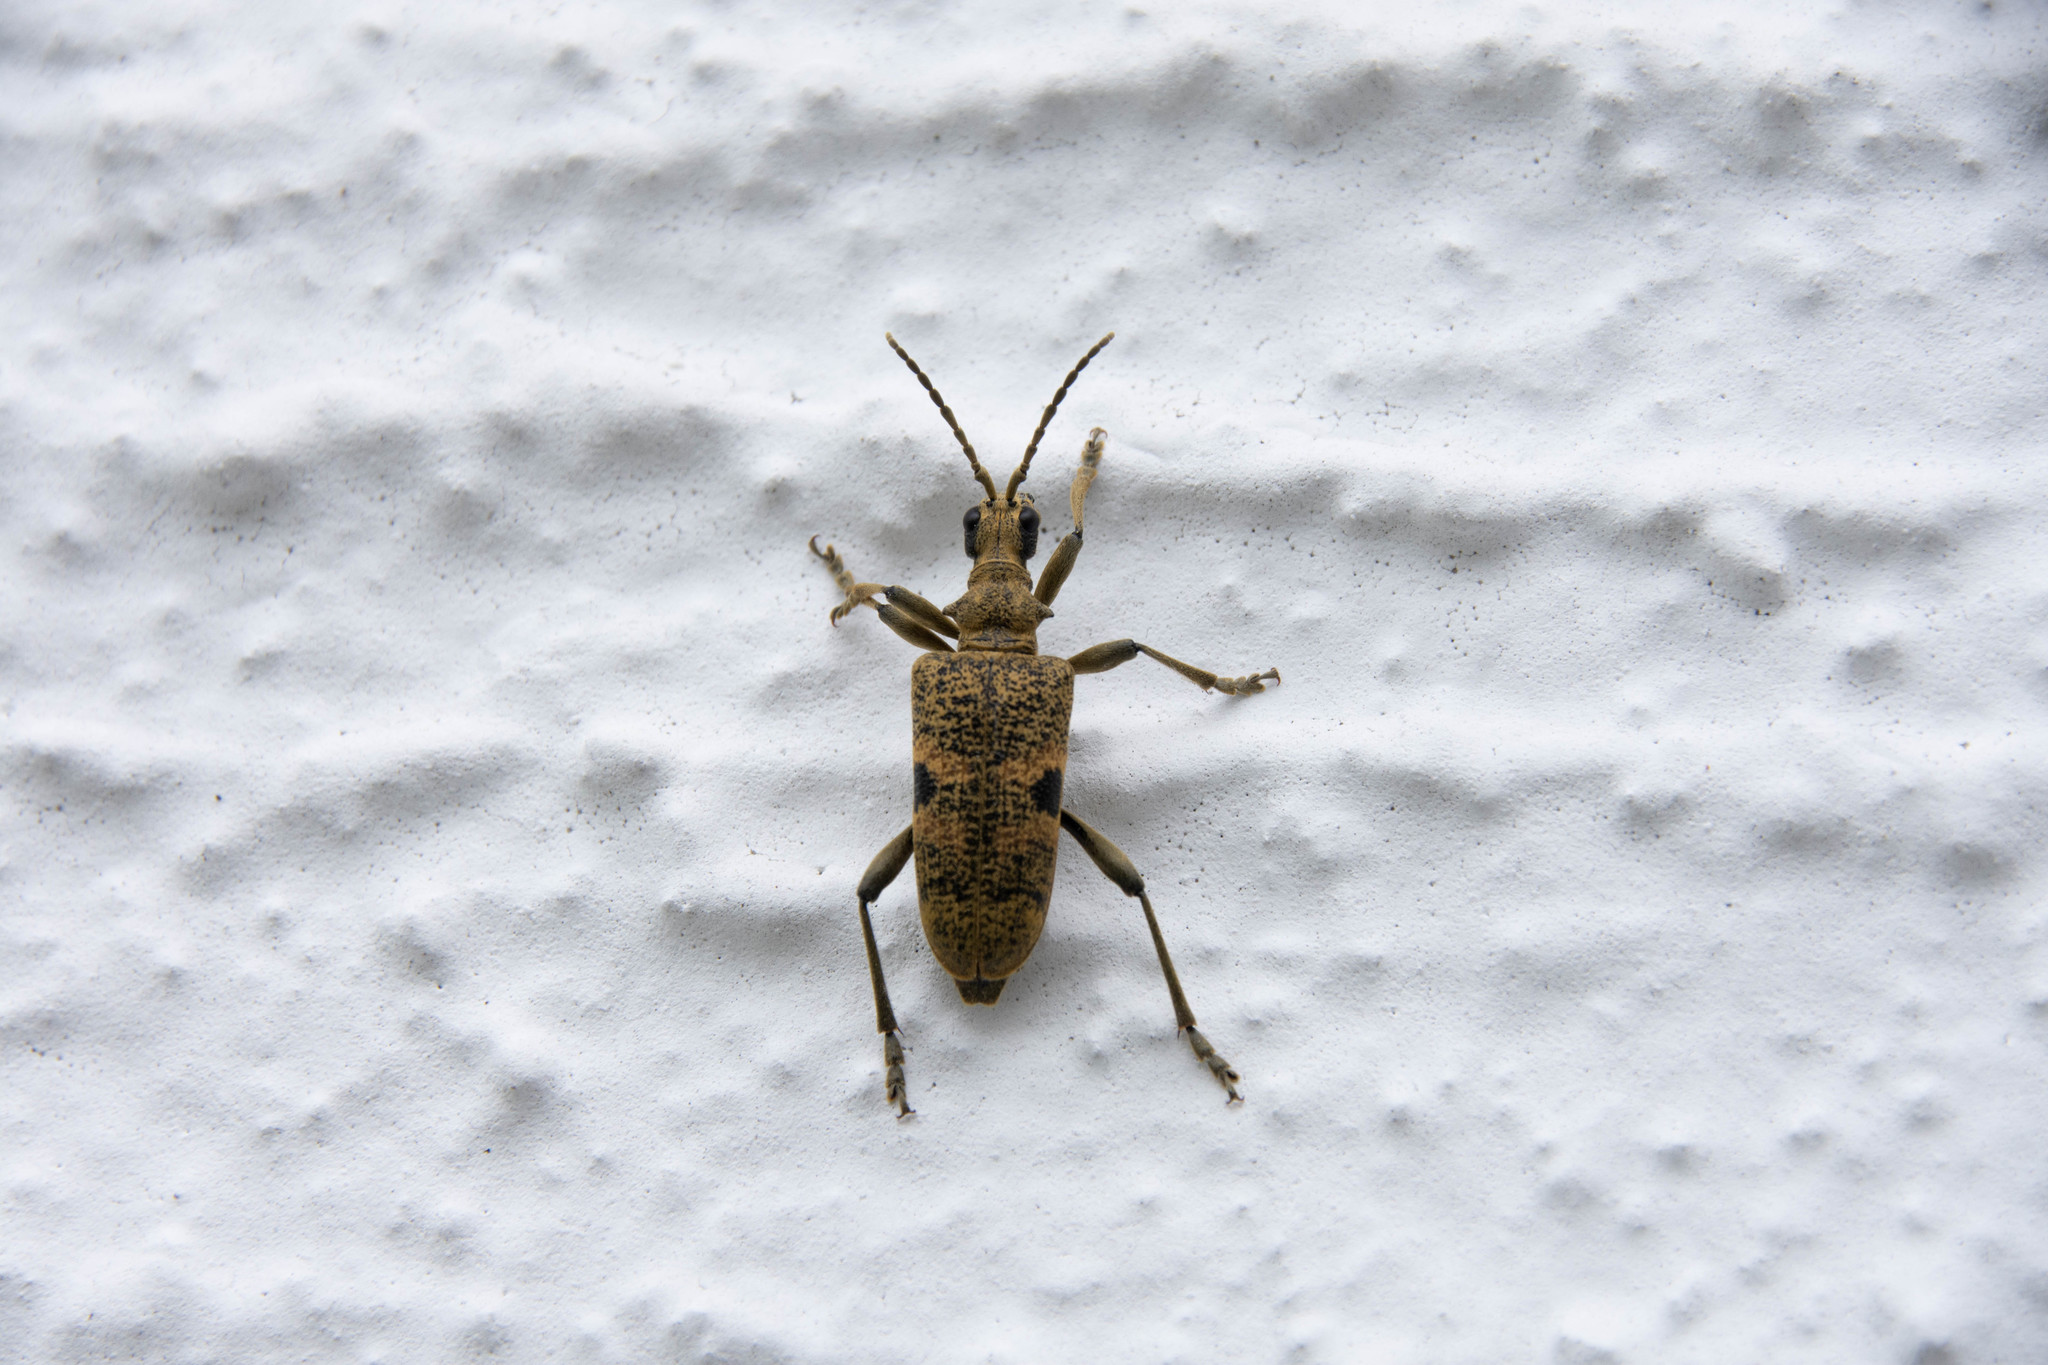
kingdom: Animalia
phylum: Arthropoda
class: Insecta
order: Coleoptera
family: Cerambycidae
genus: Rhagium
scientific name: Rhagium mordax
